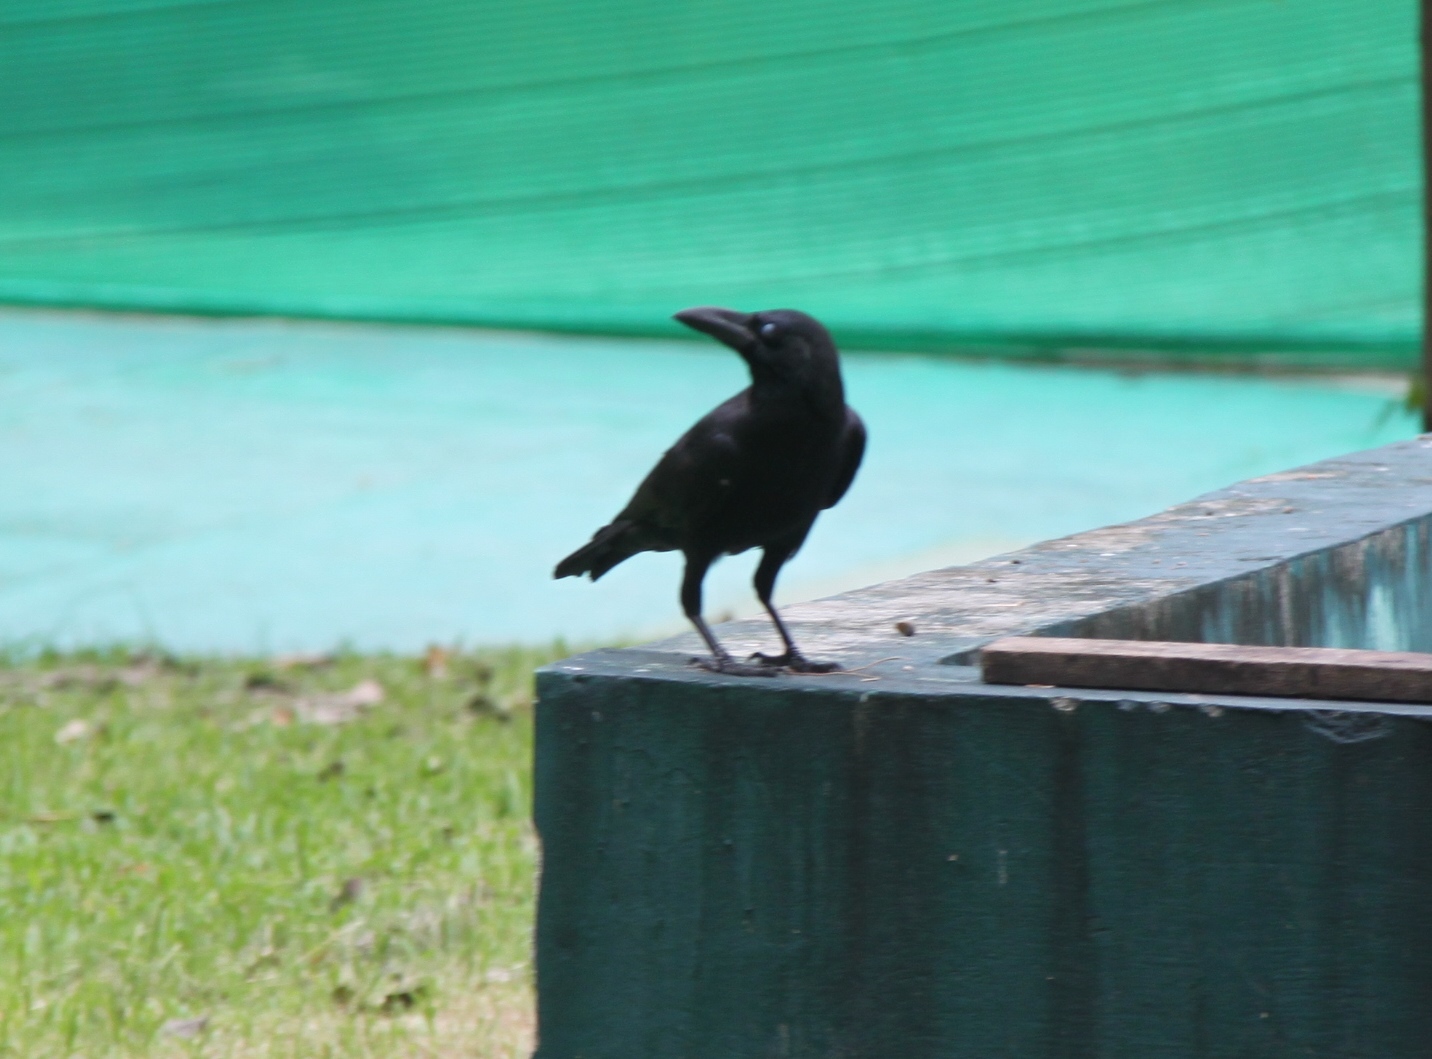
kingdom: Animalia
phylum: Chordata
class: Aves
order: Passeriformes
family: Corvidae
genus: Corvus
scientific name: Corvus macrorhynchos
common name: Large-billed crow
